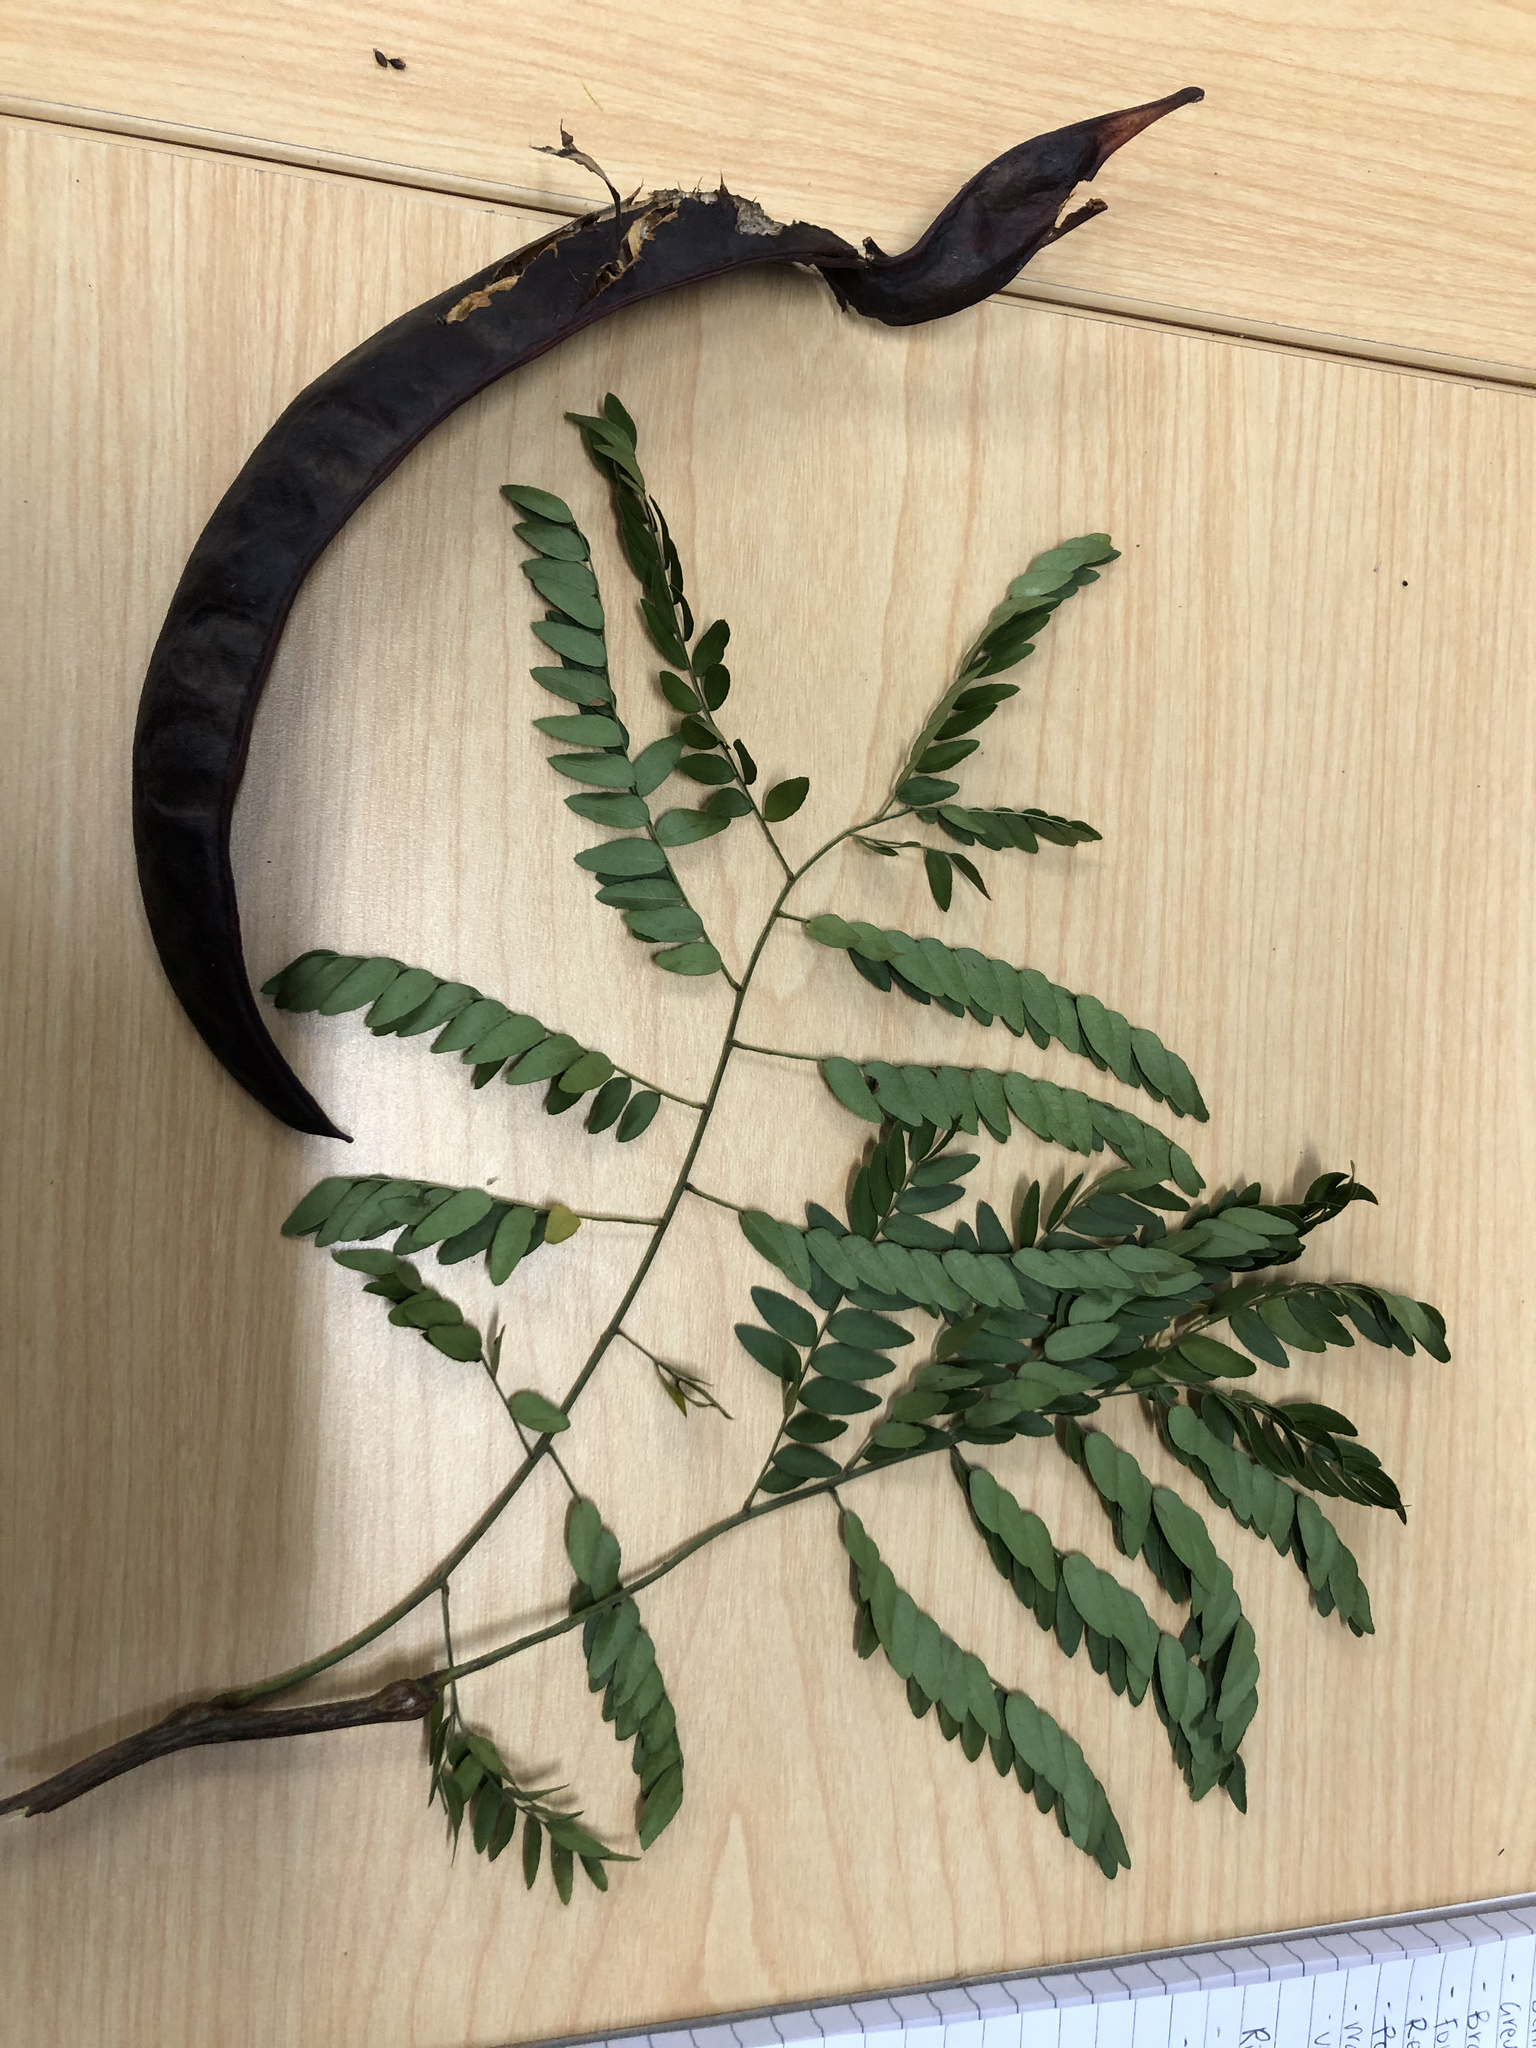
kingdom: Plantae
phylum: Tracheophyta
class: Magnoliopsida
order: Fabales
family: Fabaceae
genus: Gleditsia
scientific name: Gleditsia triacanthos
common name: Common honeylocust
